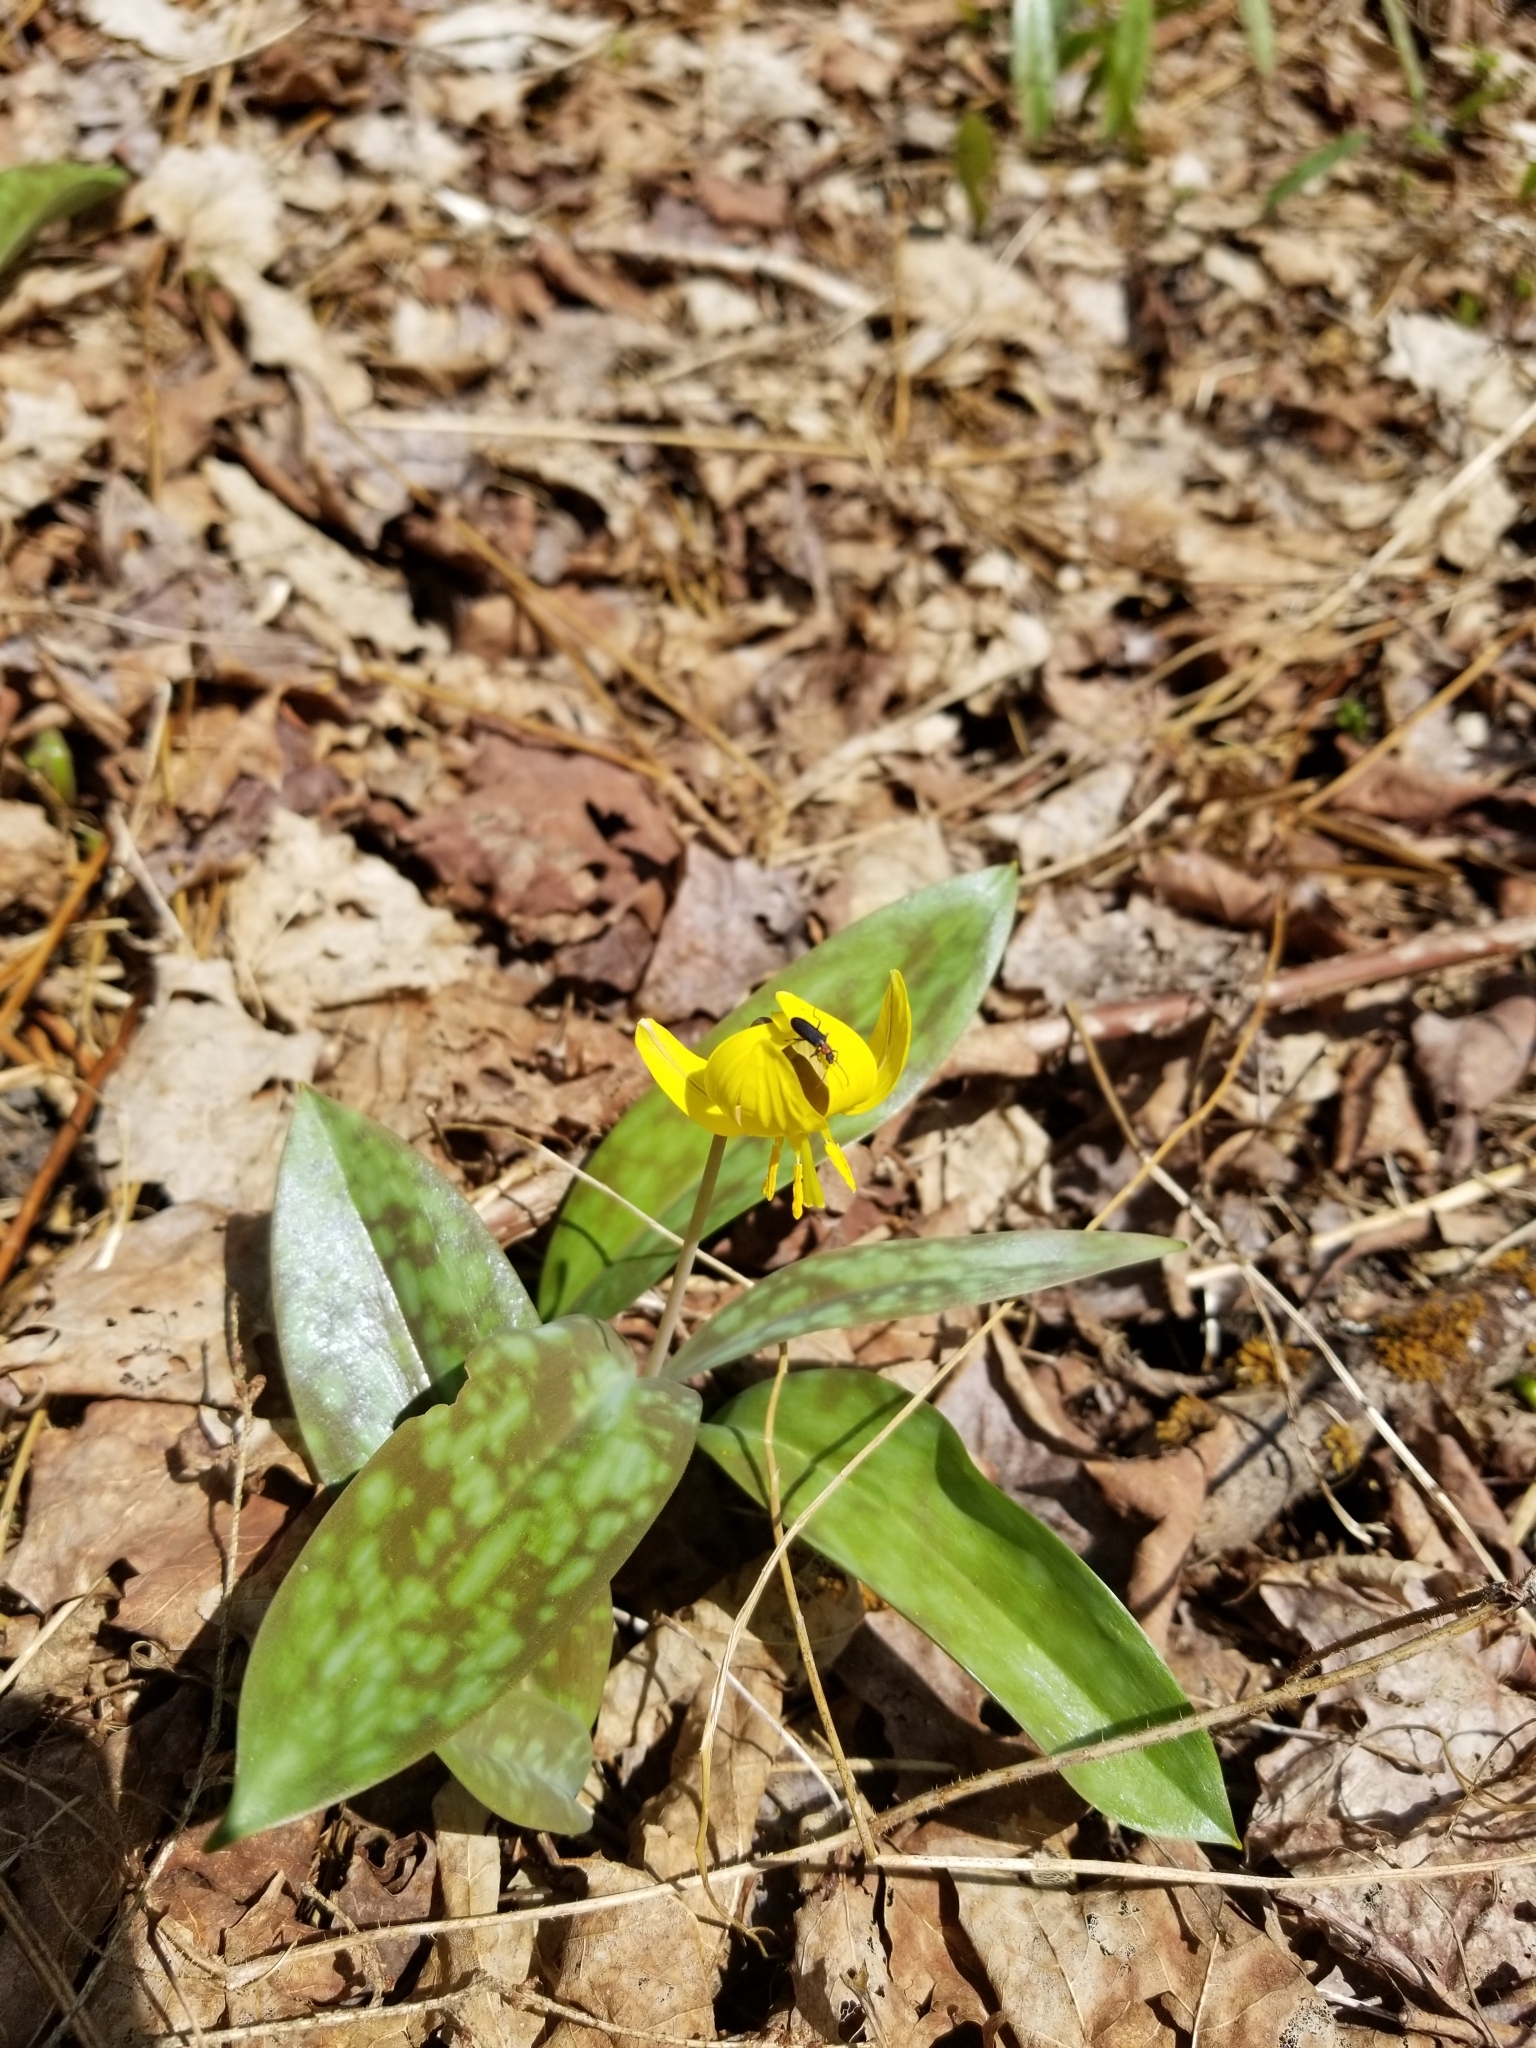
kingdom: Plantae
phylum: Tracheophyta
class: Liliopsida
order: Liliales
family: Liliaceae
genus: Erythronium
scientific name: Erythronium americanum
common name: Yellow adder's-tongue
